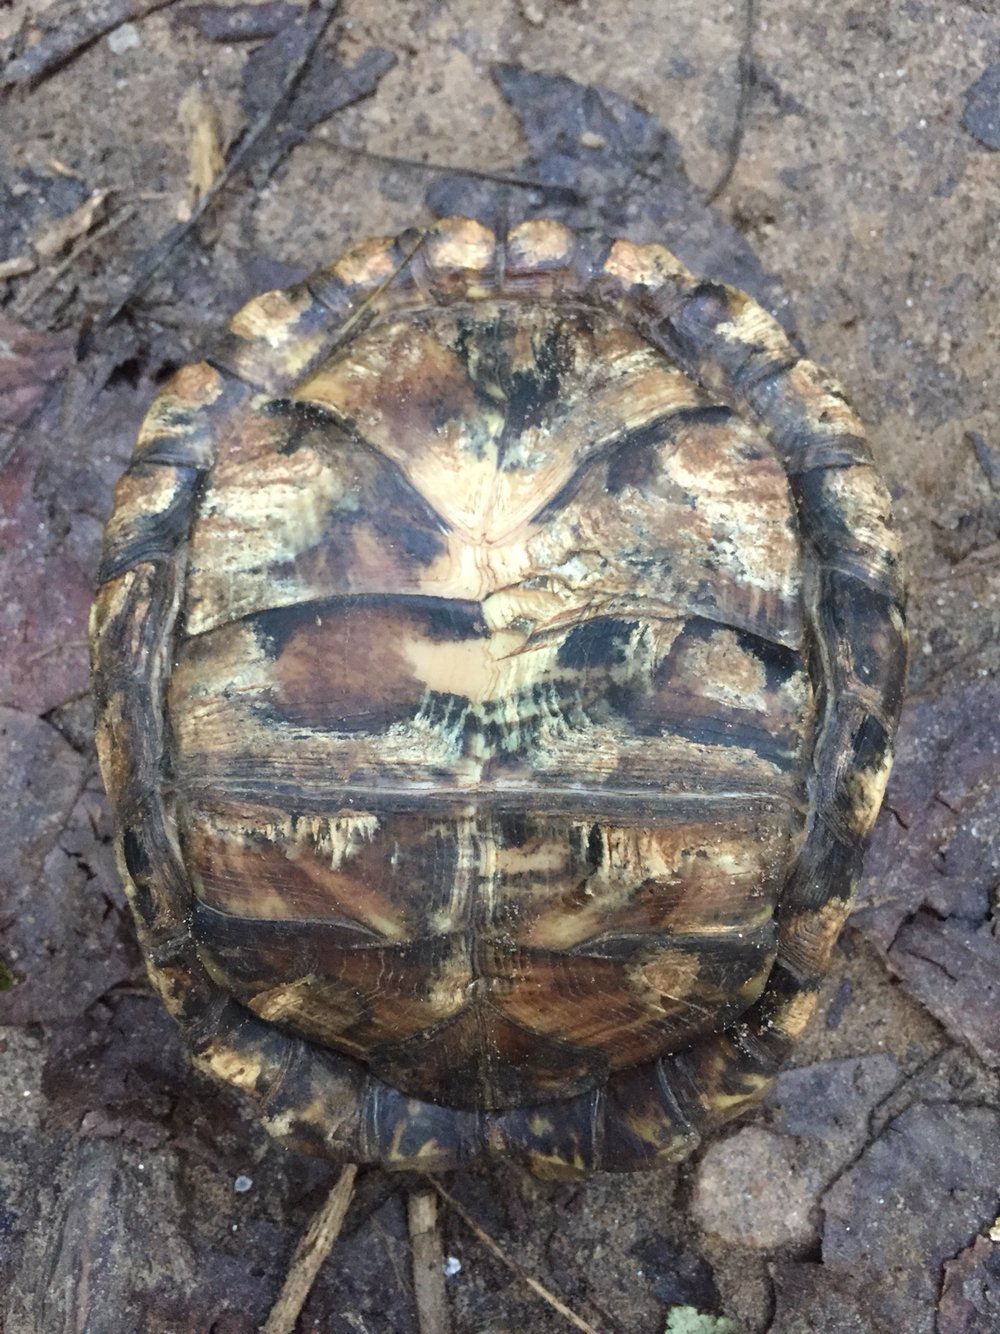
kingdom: Animalia
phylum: Chordata
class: Testudines
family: Emydidae
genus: Terrapene
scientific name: Terrapene carolina
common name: Common box turtle
